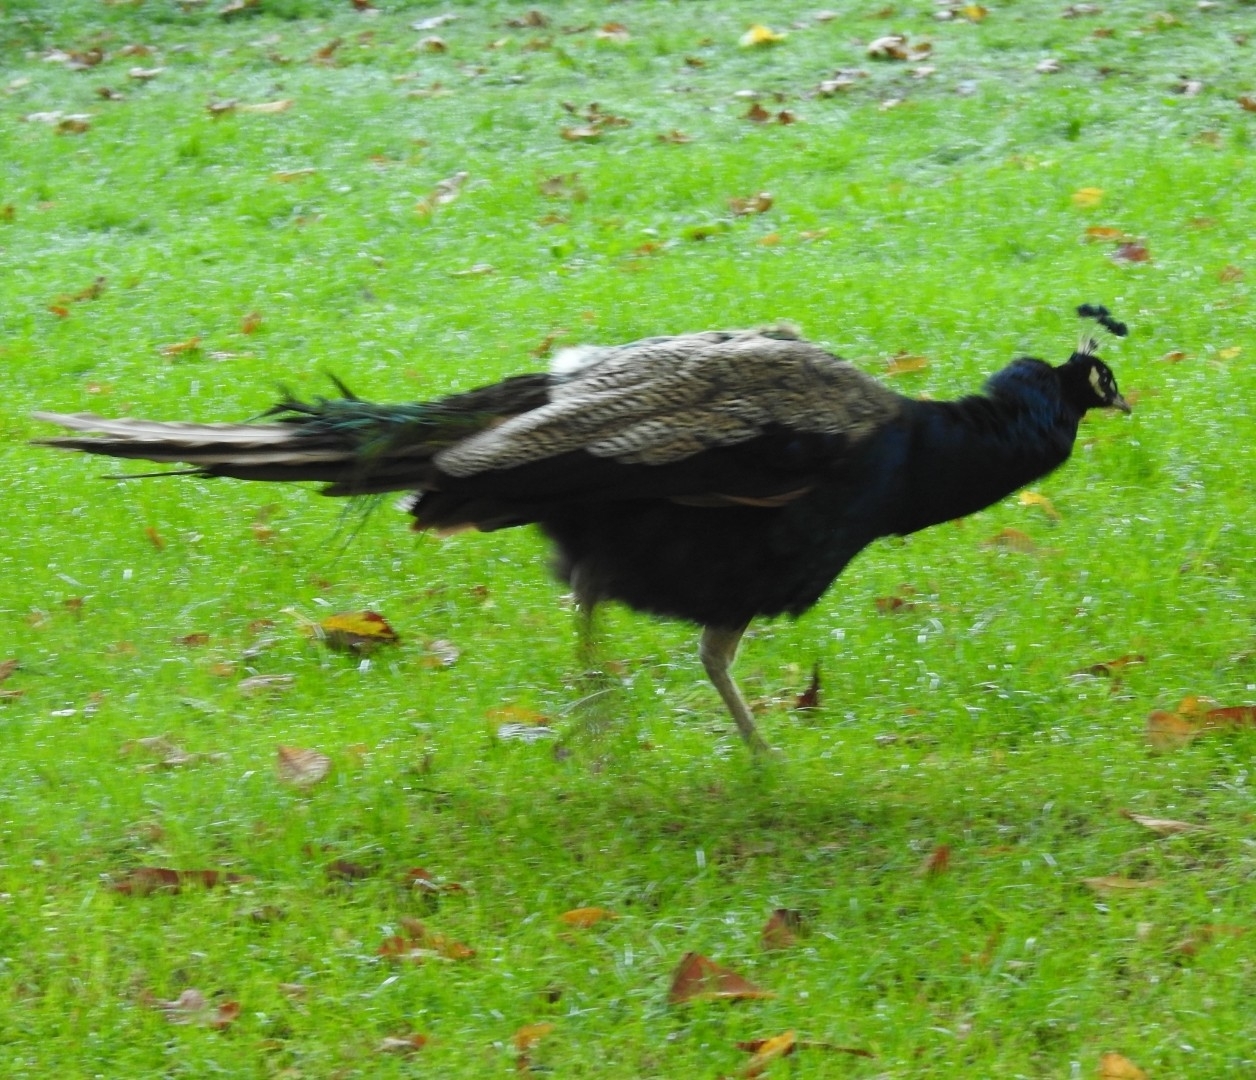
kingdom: Animalia
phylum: Chordata
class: Aves
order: Galliformes
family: Phasianidae
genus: Pavo
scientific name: Pavo cristatus
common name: Indian peafowl
